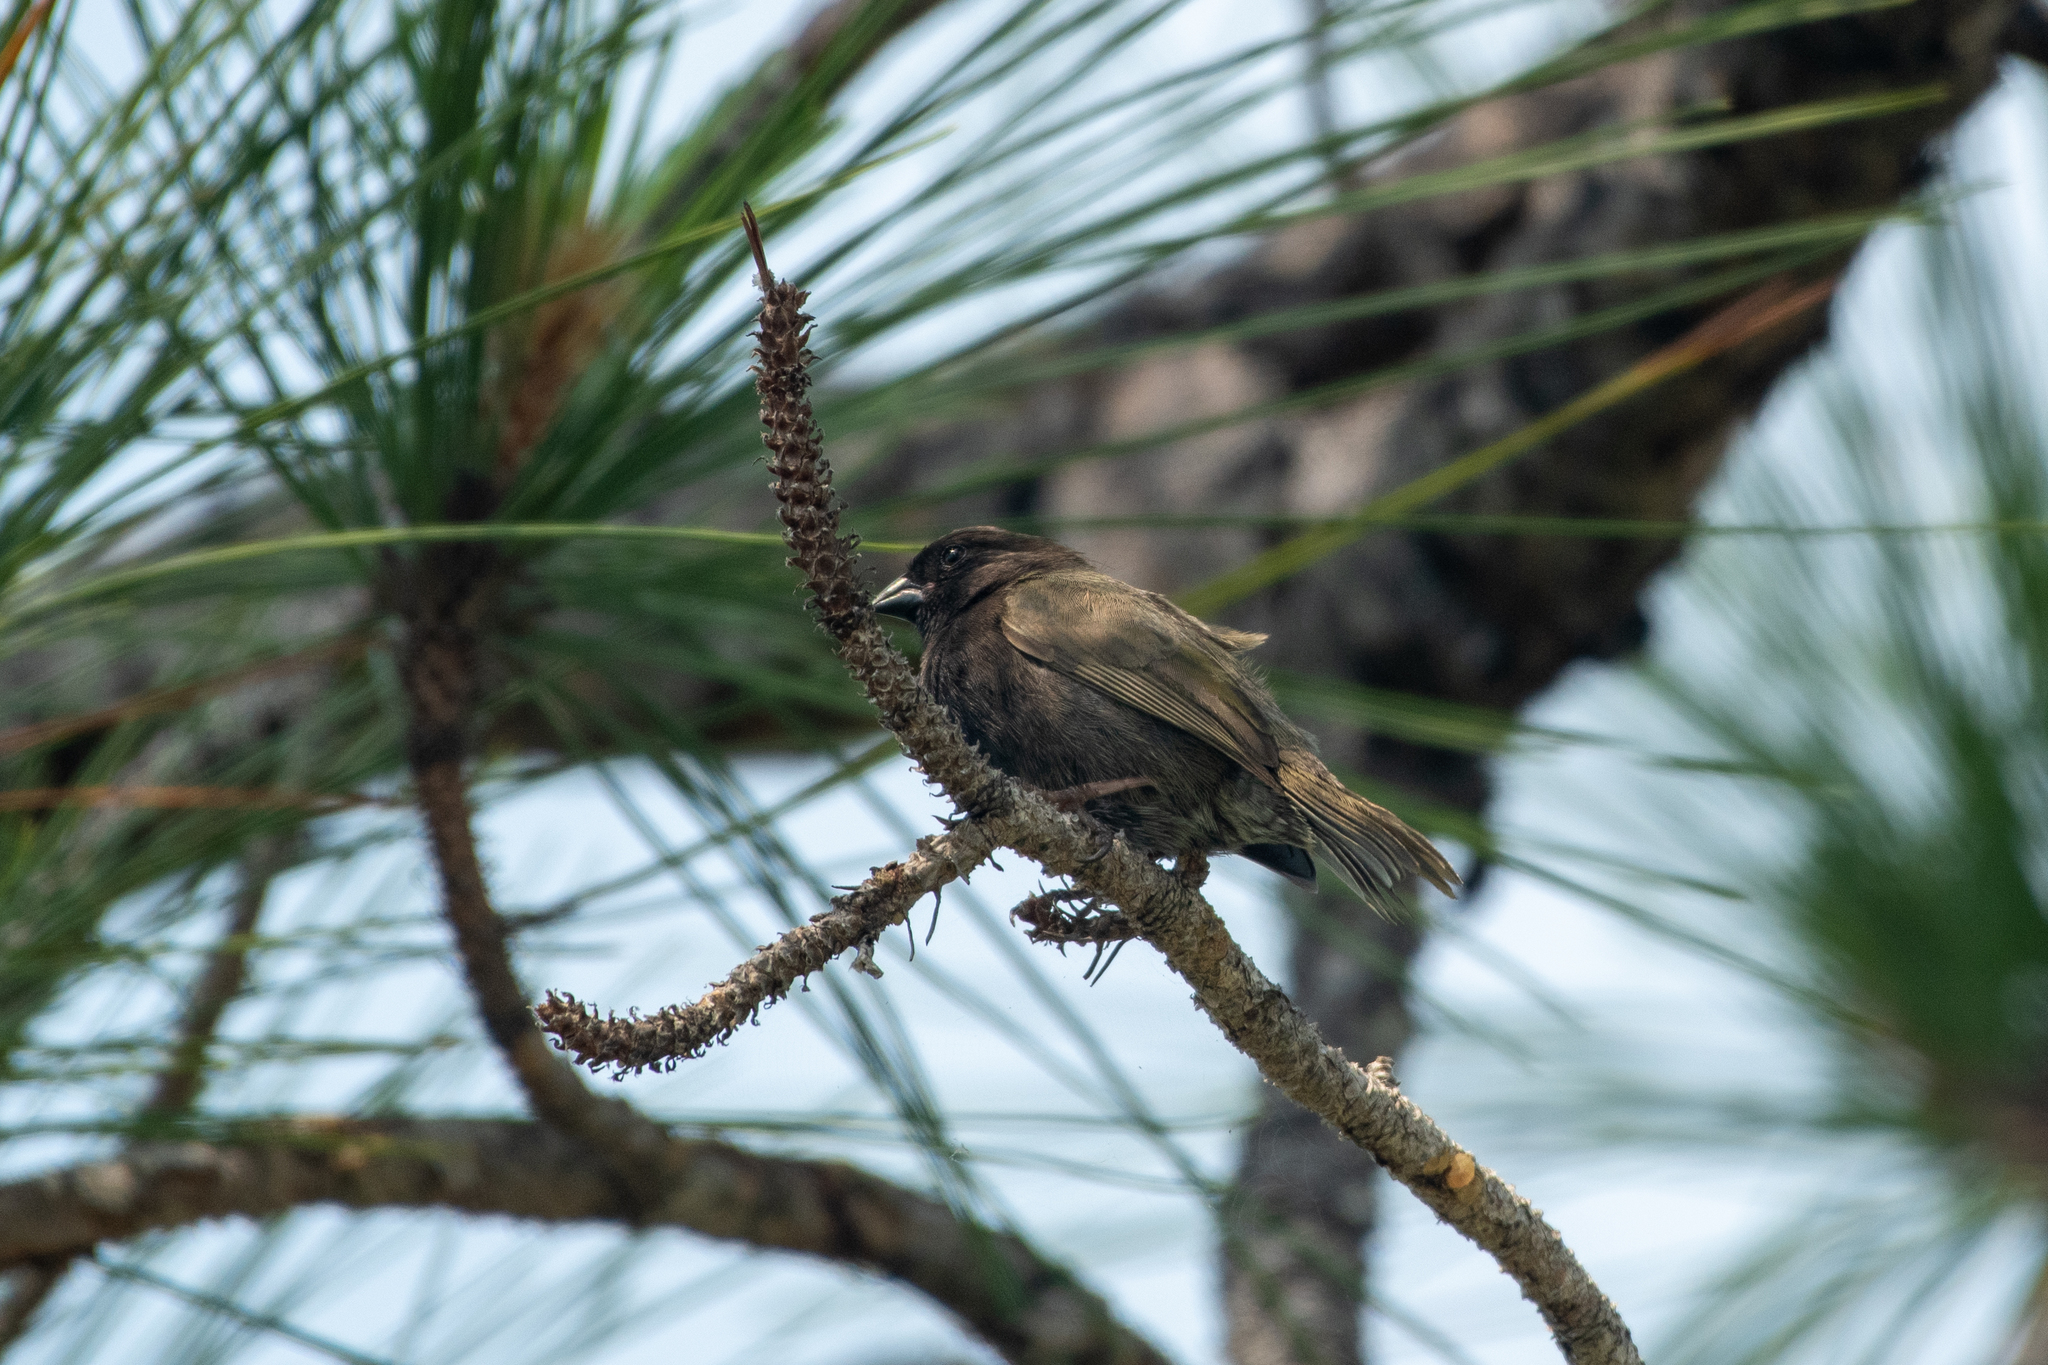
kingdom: Animalia
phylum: Chordata
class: Aves
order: Passeriformes
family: Thraupidae
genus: Melanospiza
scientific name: Melanospiza bicolor
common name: Black-faced grassquit
